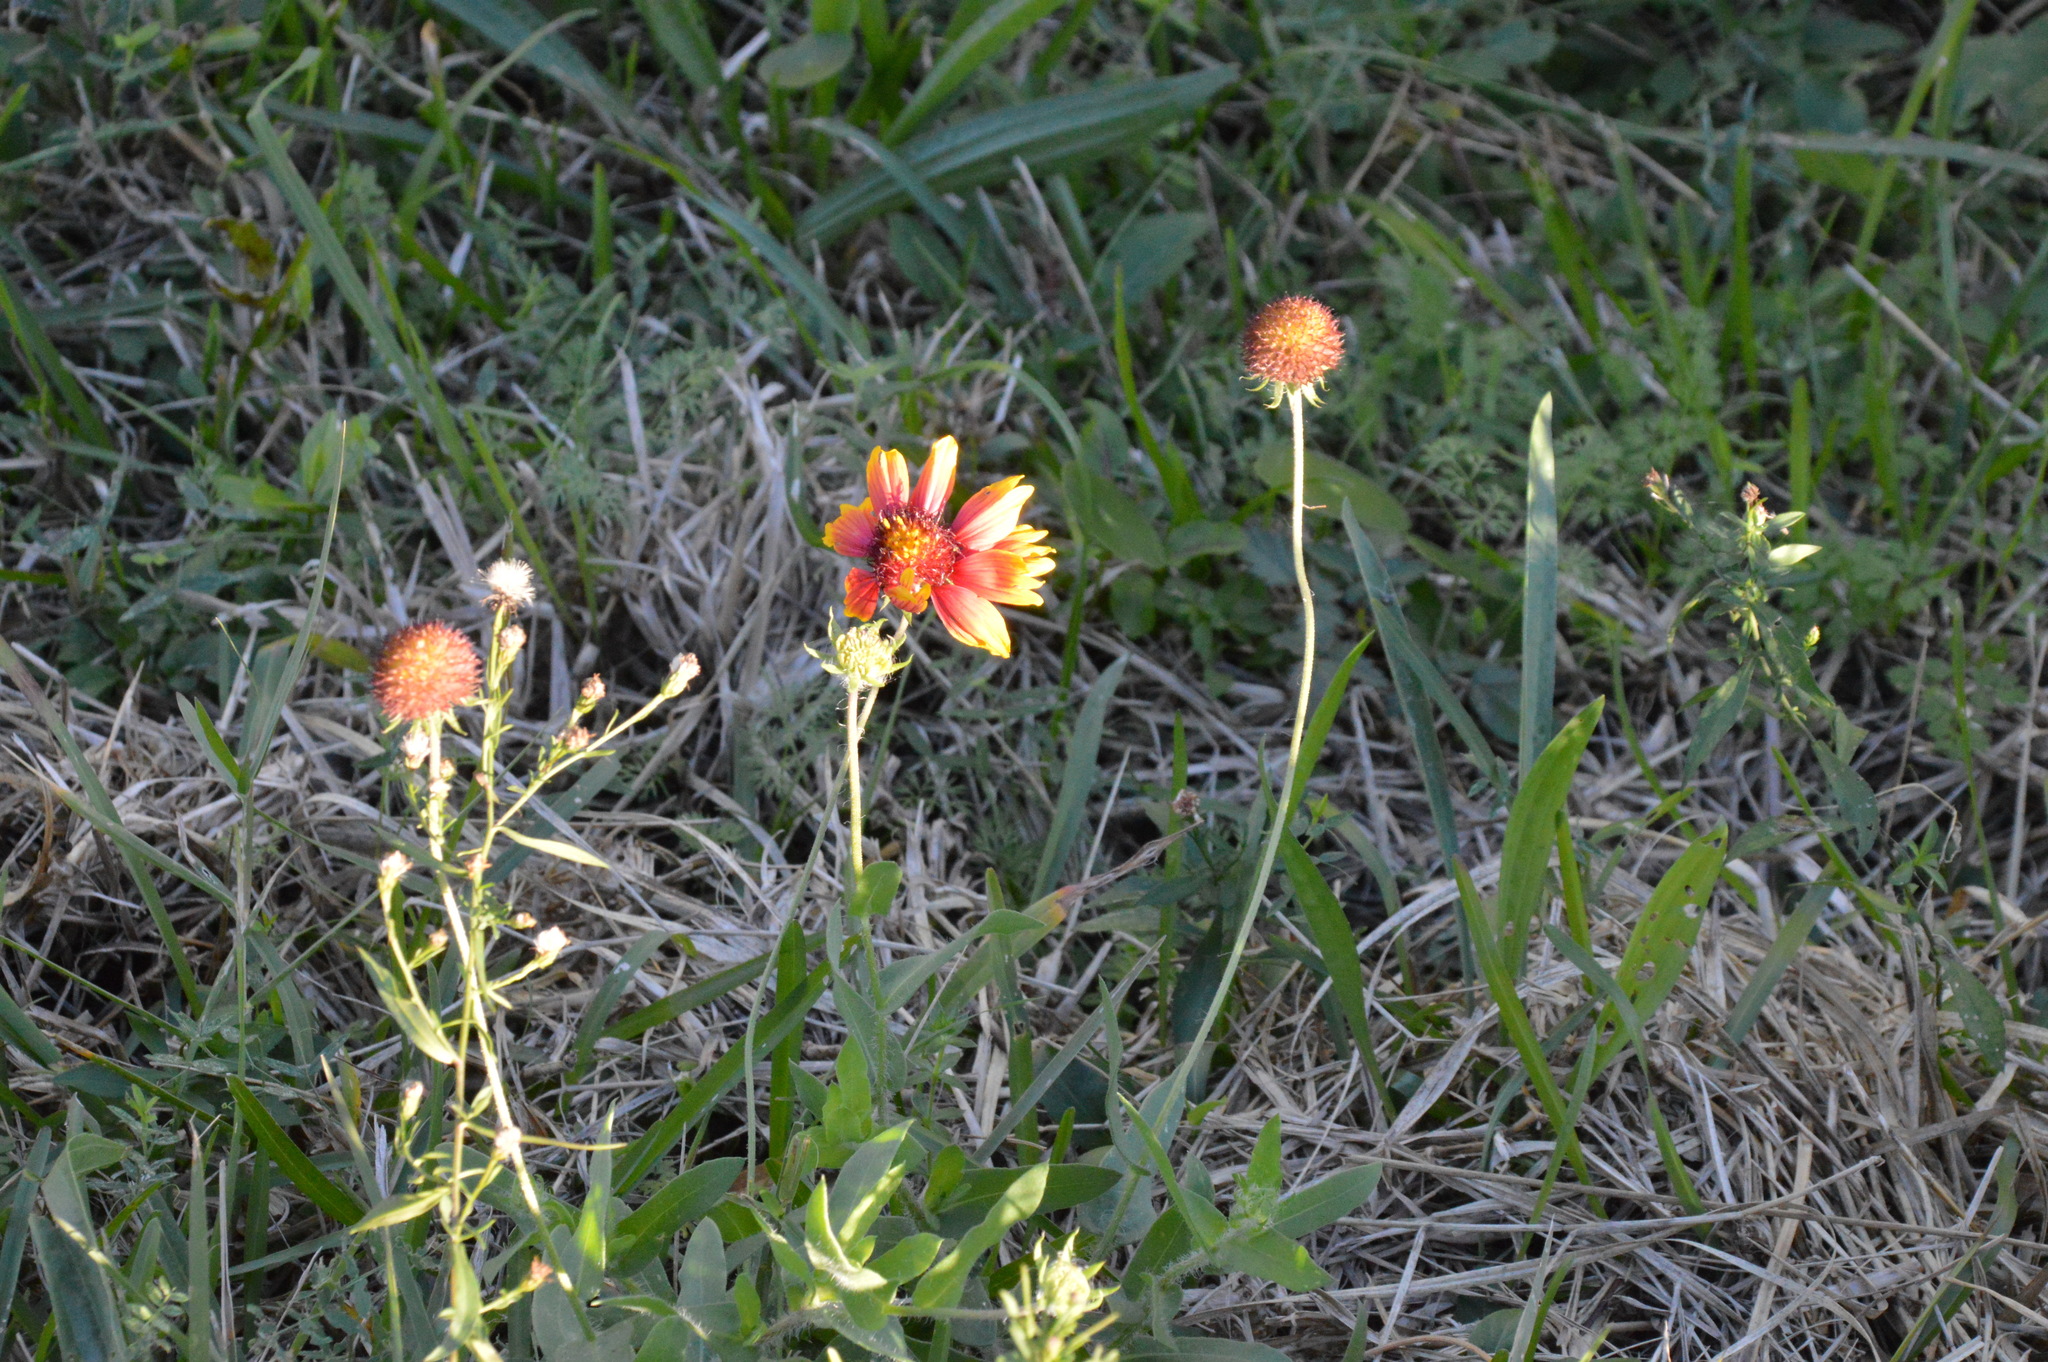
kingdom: Plantae
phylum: Tracheophyta
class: Magnoliopsida
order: Asterales
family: Asteraceae
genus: Gaillardia
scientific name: Gaillardia pulchella
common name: Firewheel
